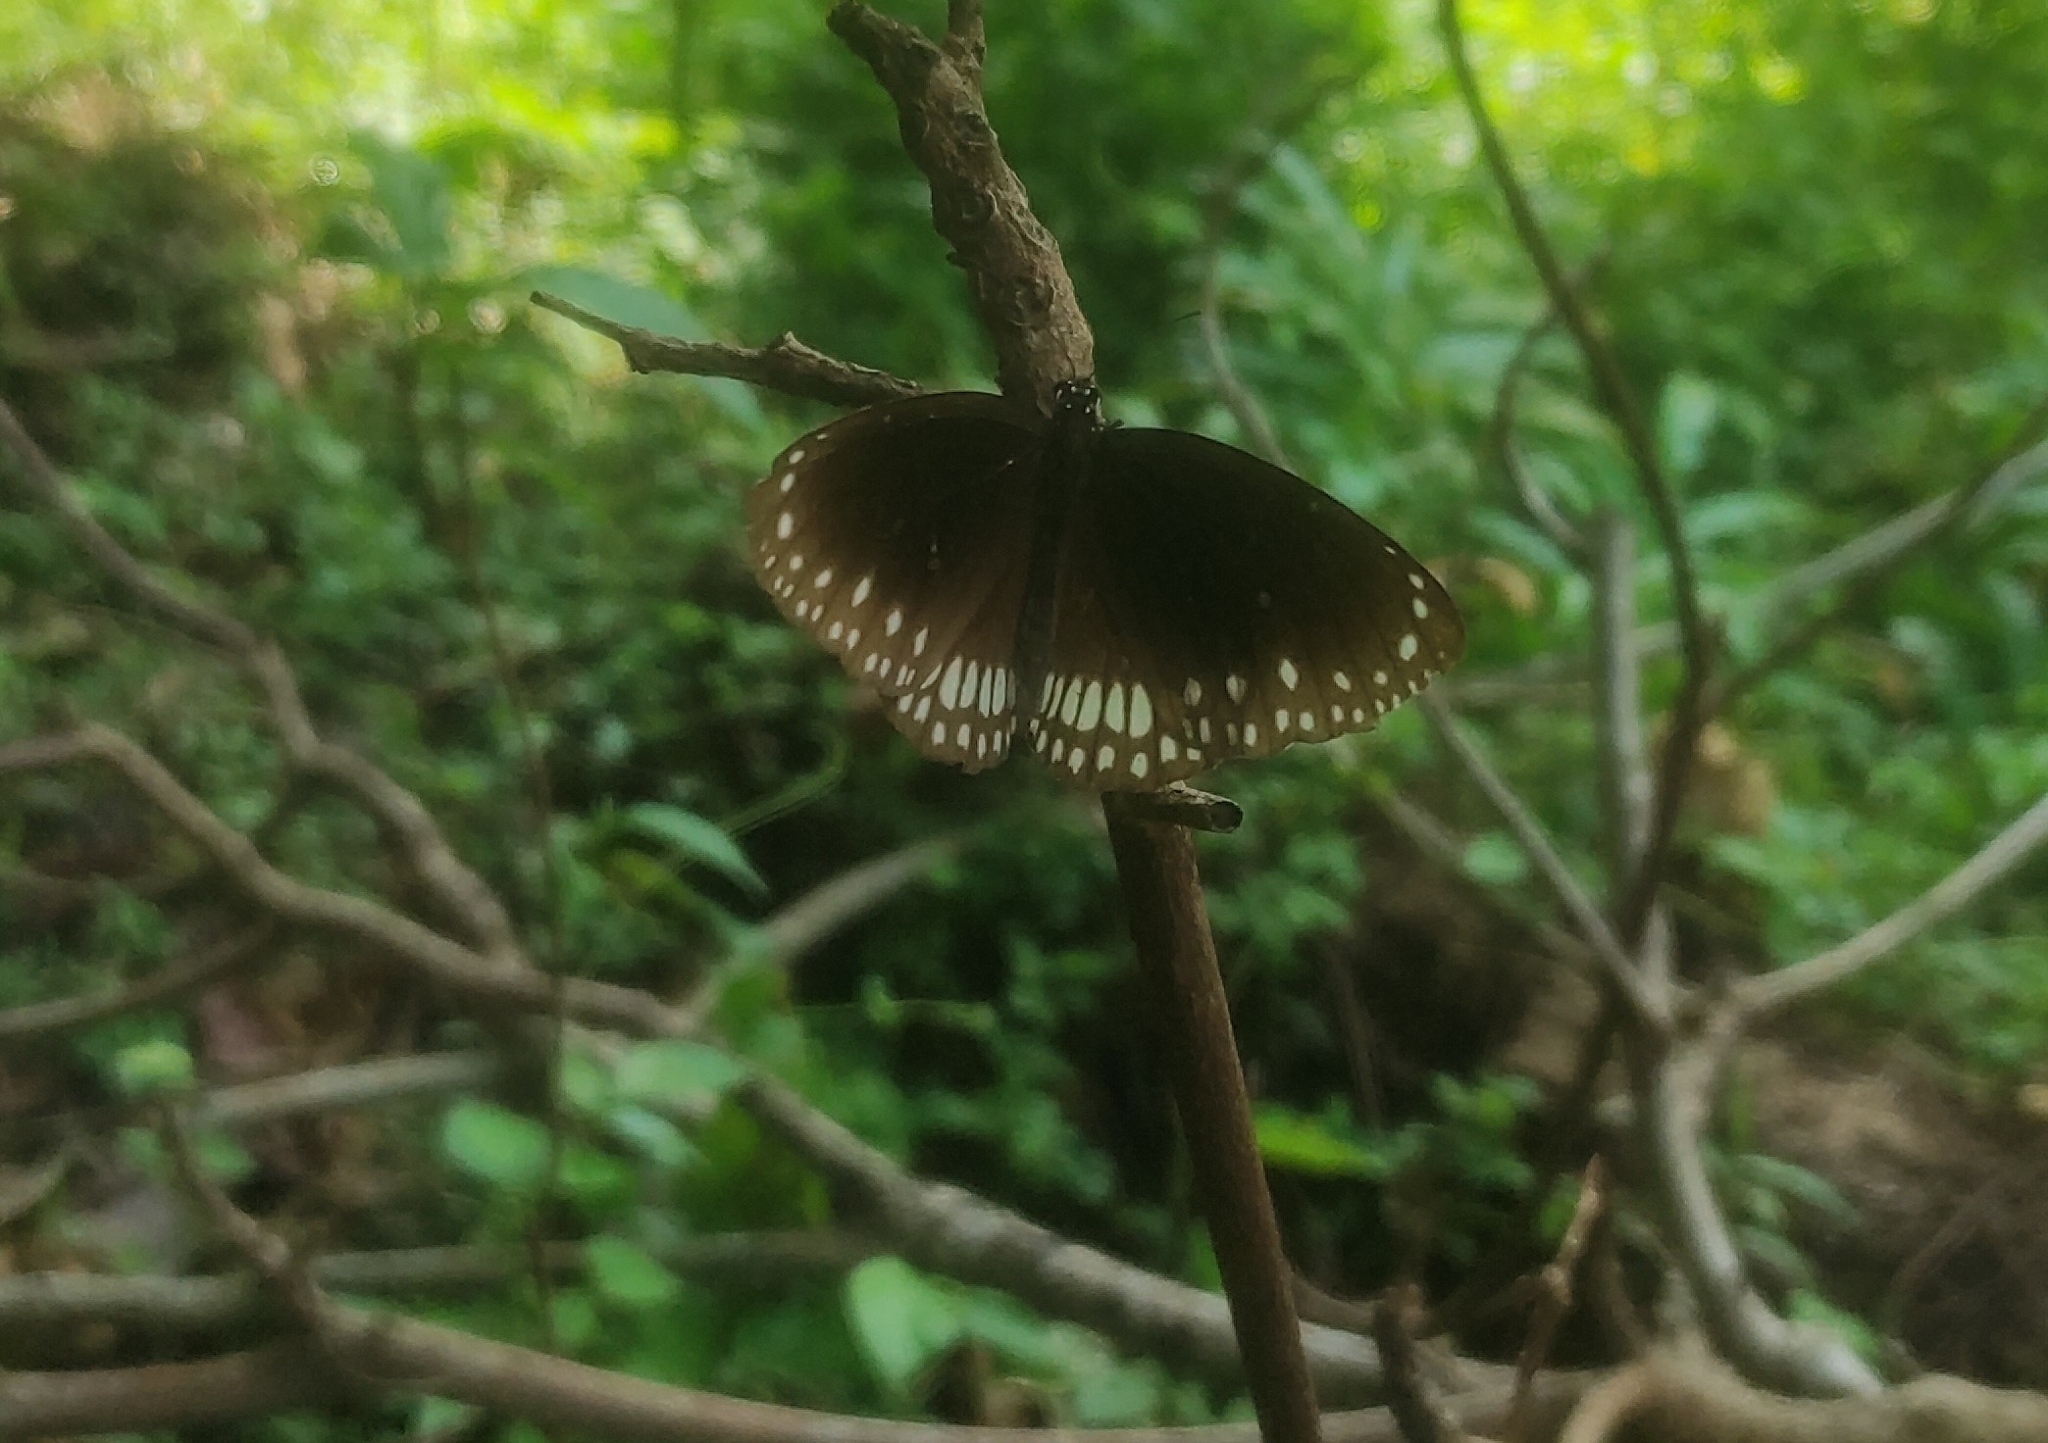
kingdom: Animalia
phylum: Arthropoda
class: Insecta
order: Lepidoptera
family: Nymphalidae
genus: Euploea
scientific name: Euploea core
